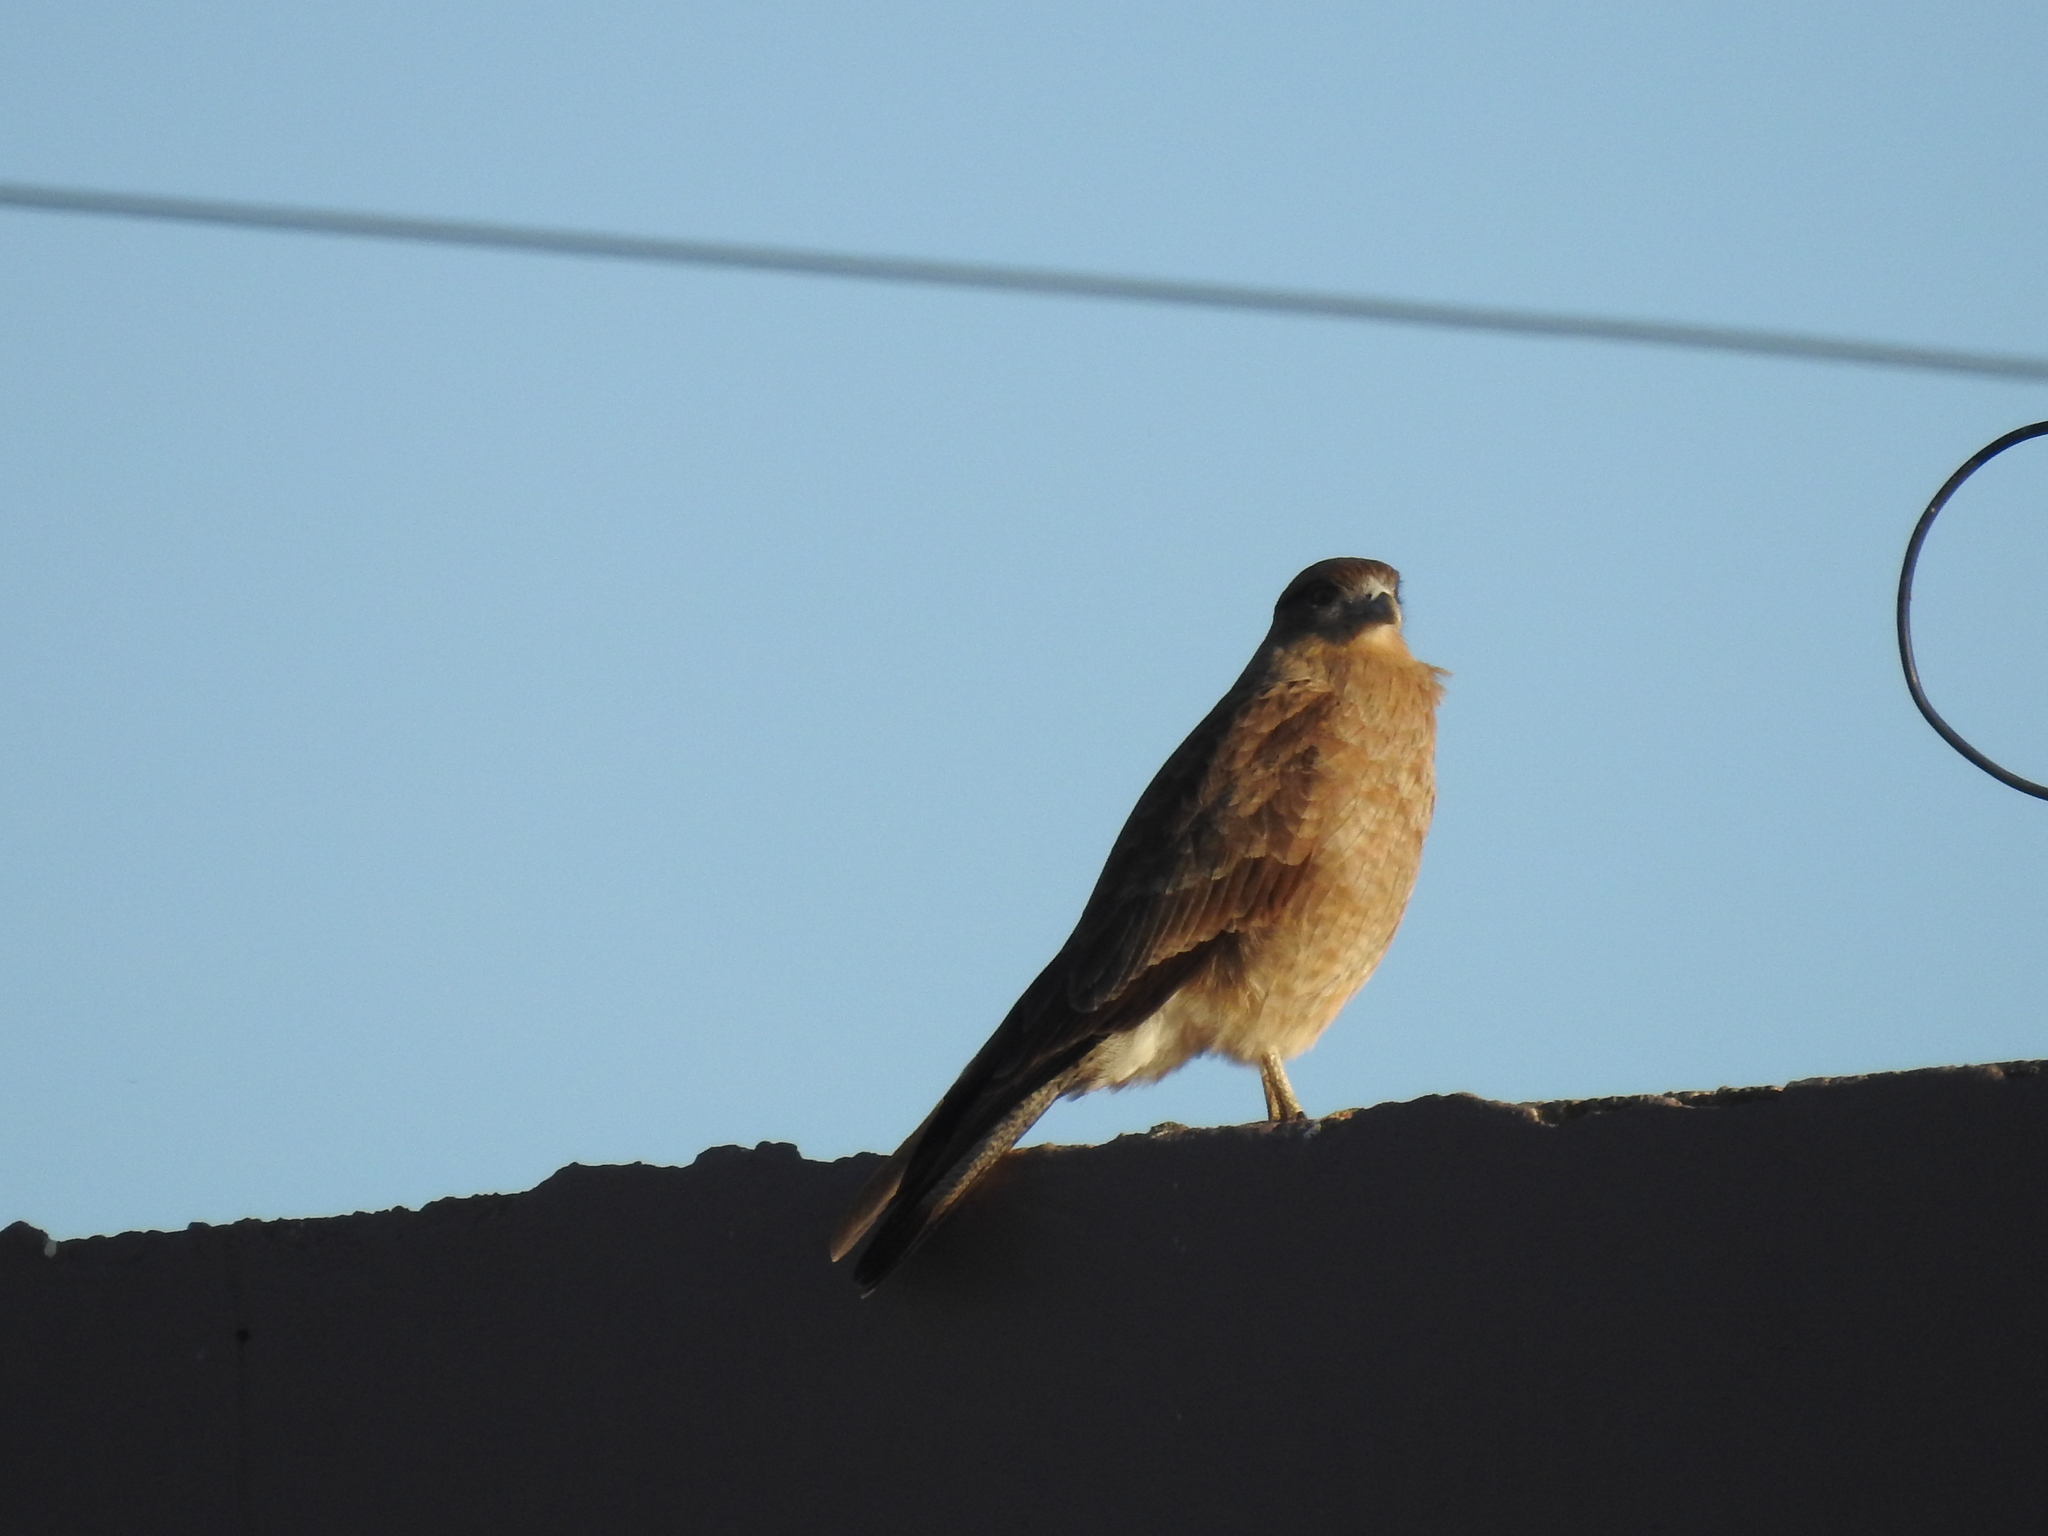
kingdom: Animalia
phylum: Chordata
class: Aves
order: Falconiformes
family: Falconidae
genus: Daptrius
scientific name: Daptrius
